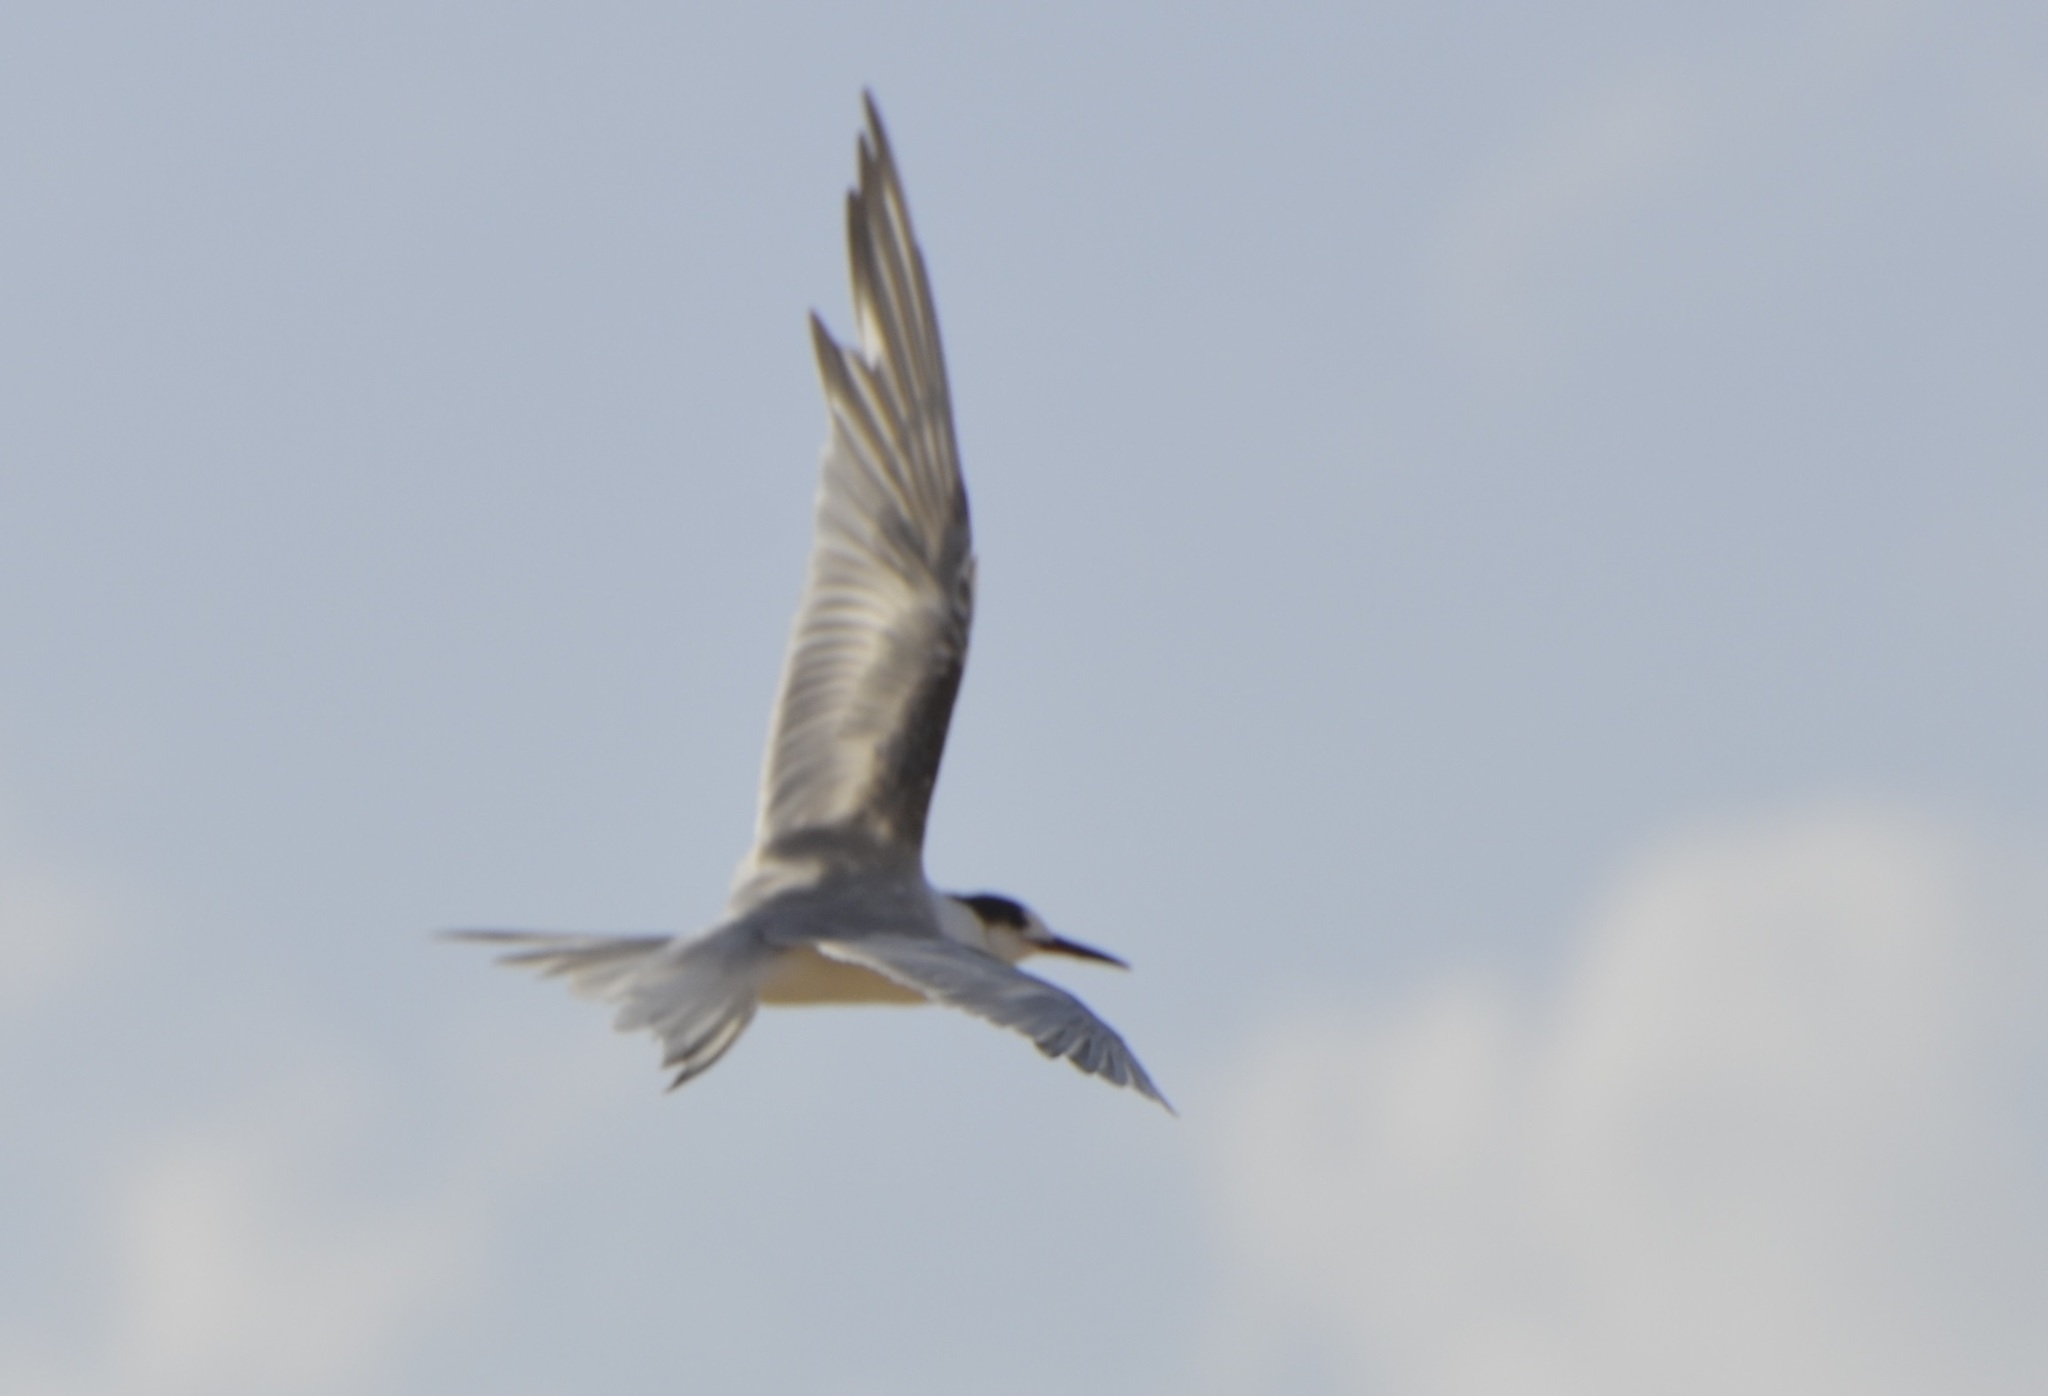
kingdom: Animalia
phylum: Chordata
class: Aves
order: Charadriiformes
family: Laridae
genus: Sterna
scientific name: Sterna hirundo
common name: Common tern
